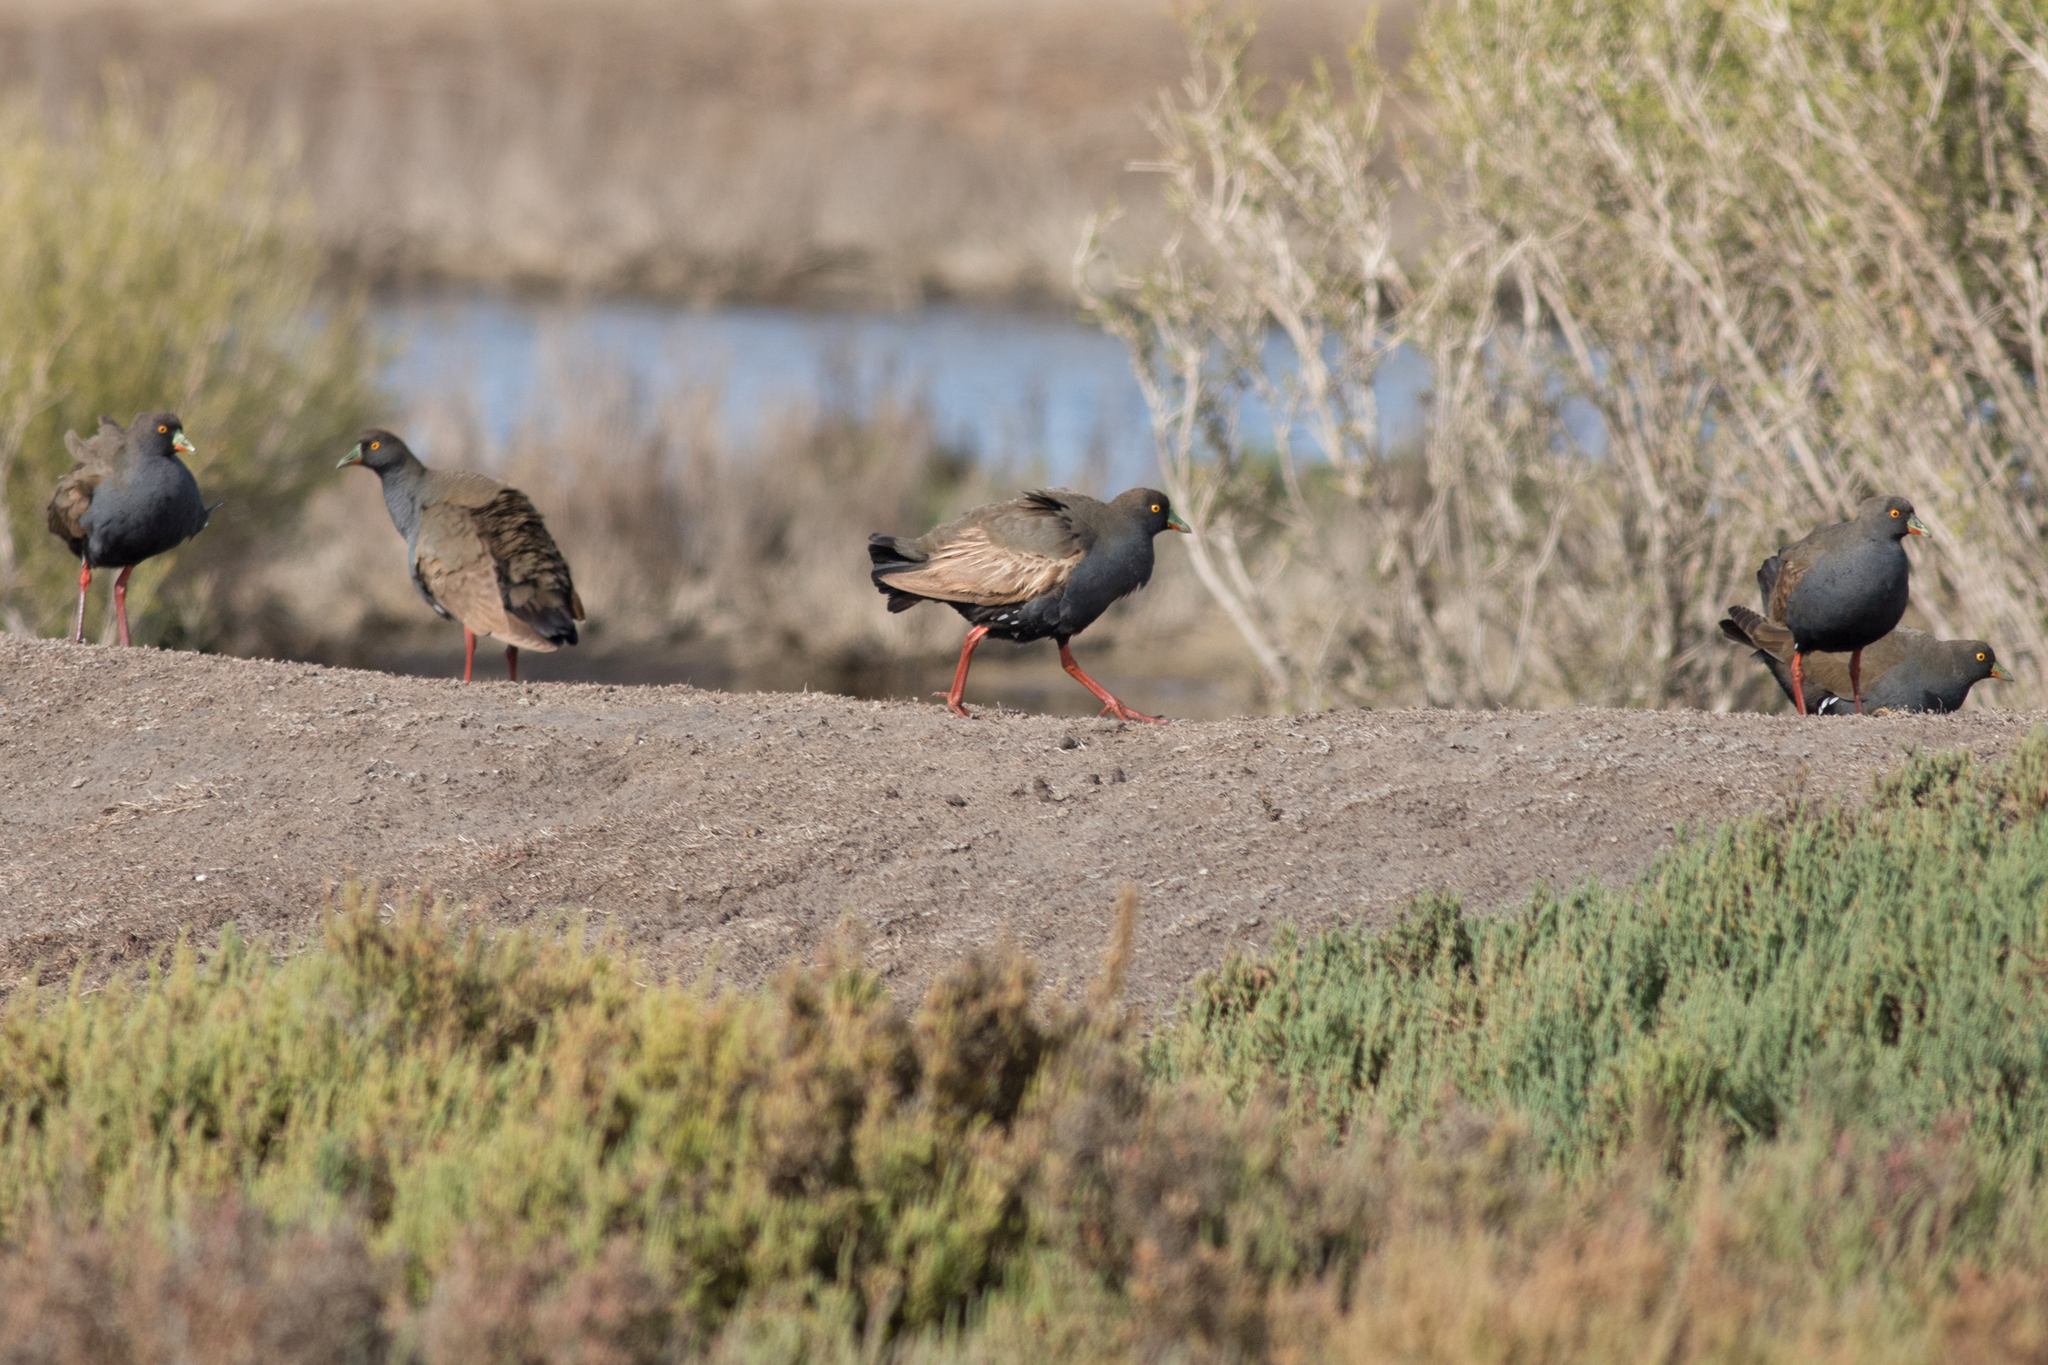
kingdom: Animalia
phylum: Chordata
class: Aves
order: Gruiformes
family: Rallidae
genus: Gallinula
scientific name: Gallinula ventralis
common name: Black-tailed nativehen
